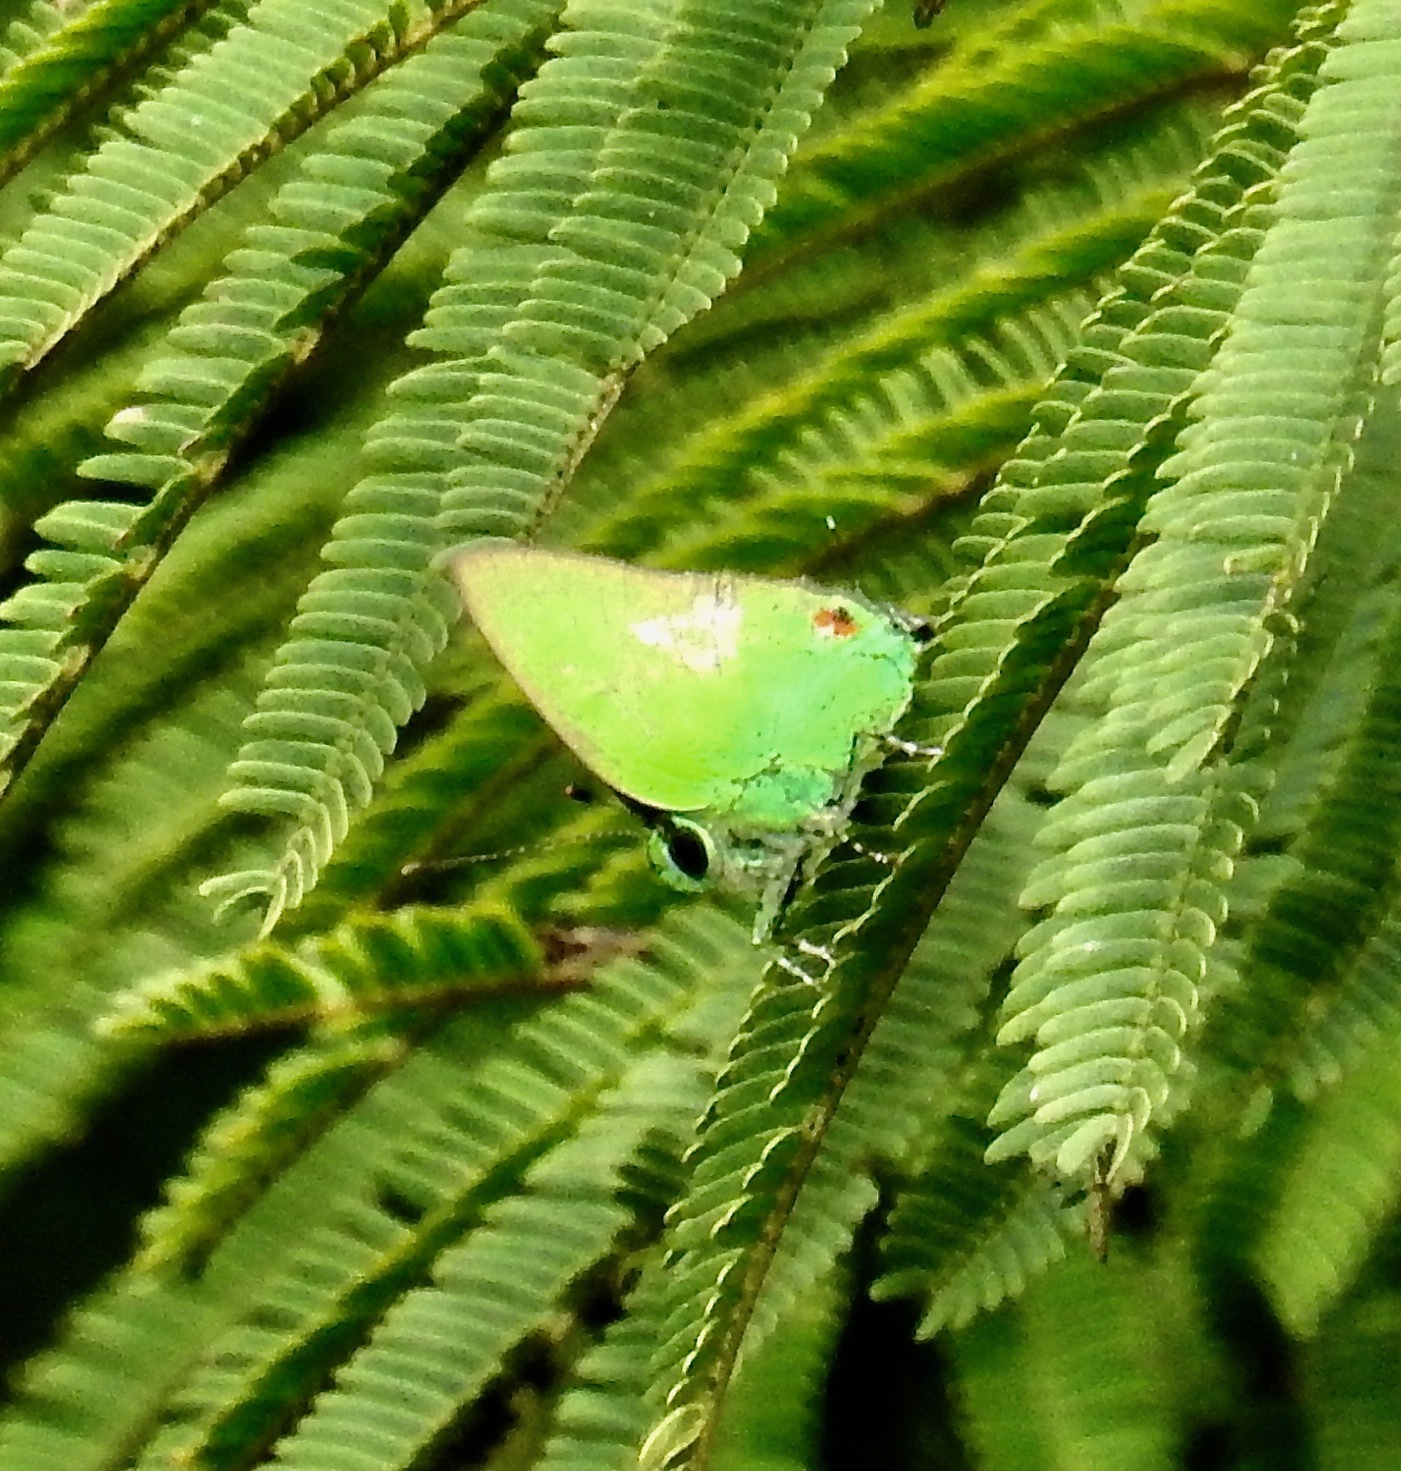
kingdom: Animalia
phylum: Arthropoda
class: Insecta
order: Lepidoptera
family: Lycaenidae
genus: Chalybs
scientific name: Chalybs janias
